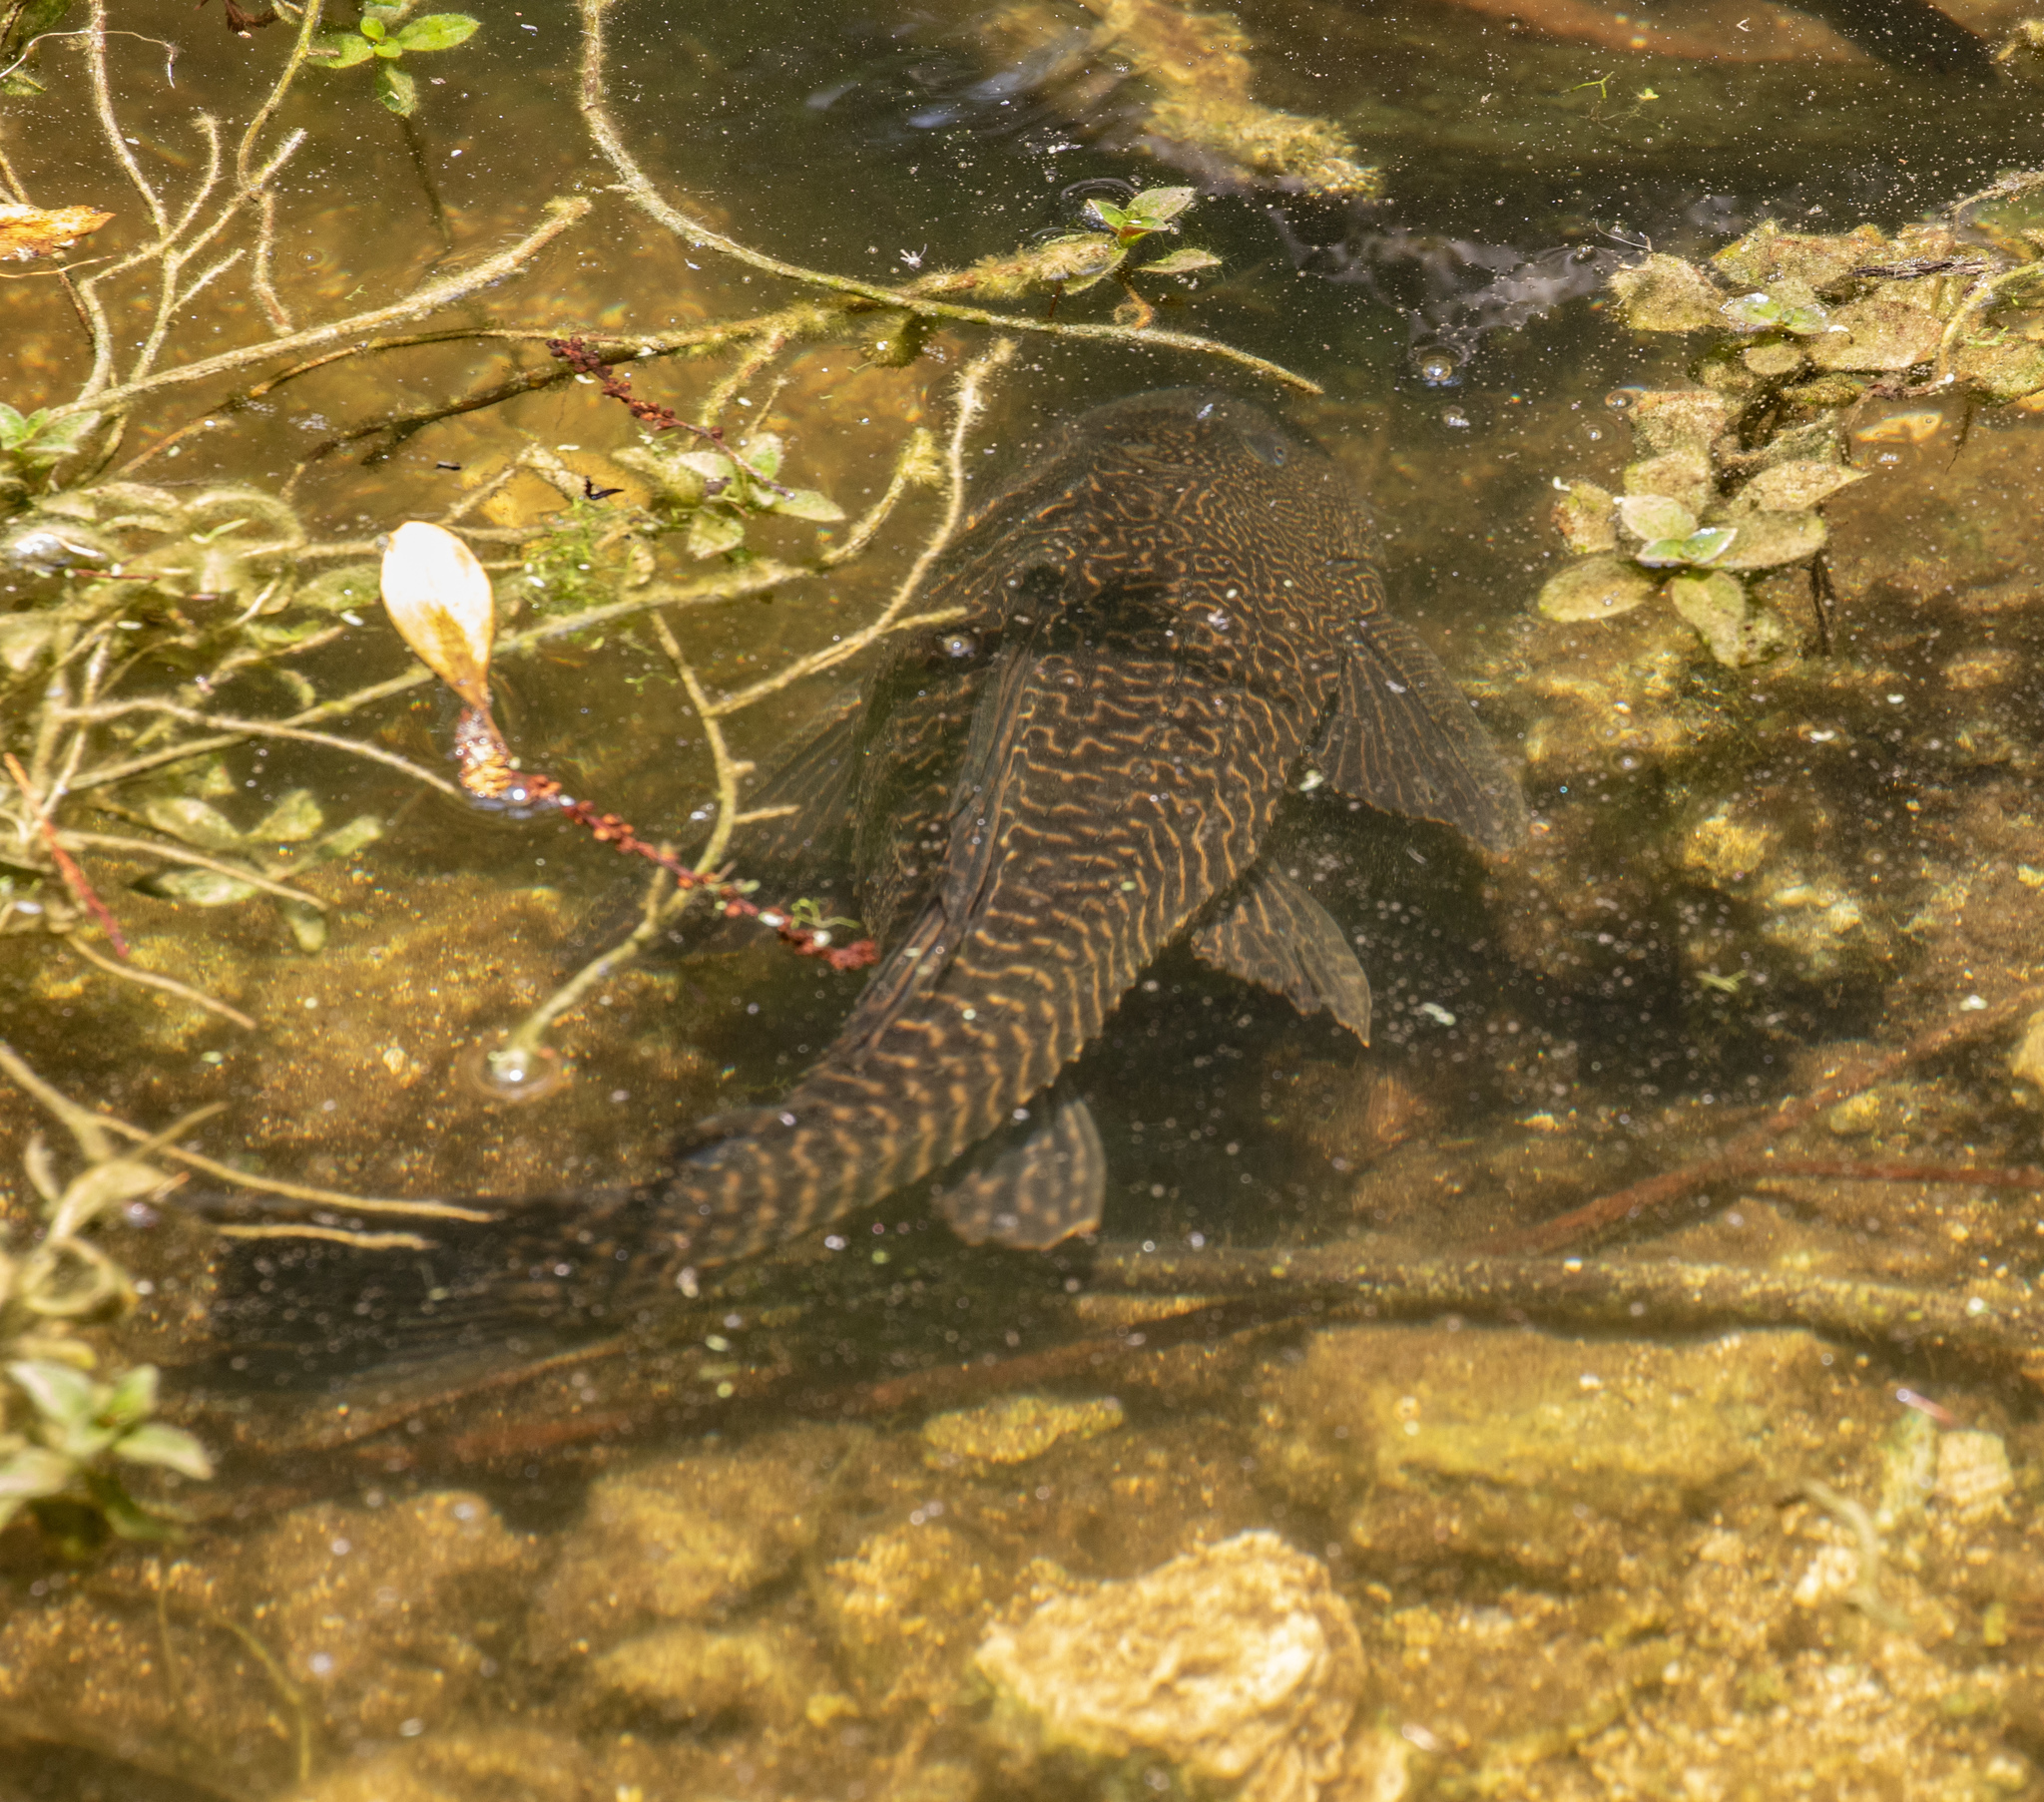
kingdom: Animalia
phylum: Chordata
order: Siluriformes
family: Loricariidae
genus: Pterygoplichthys
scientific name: Pterygoplichthys
